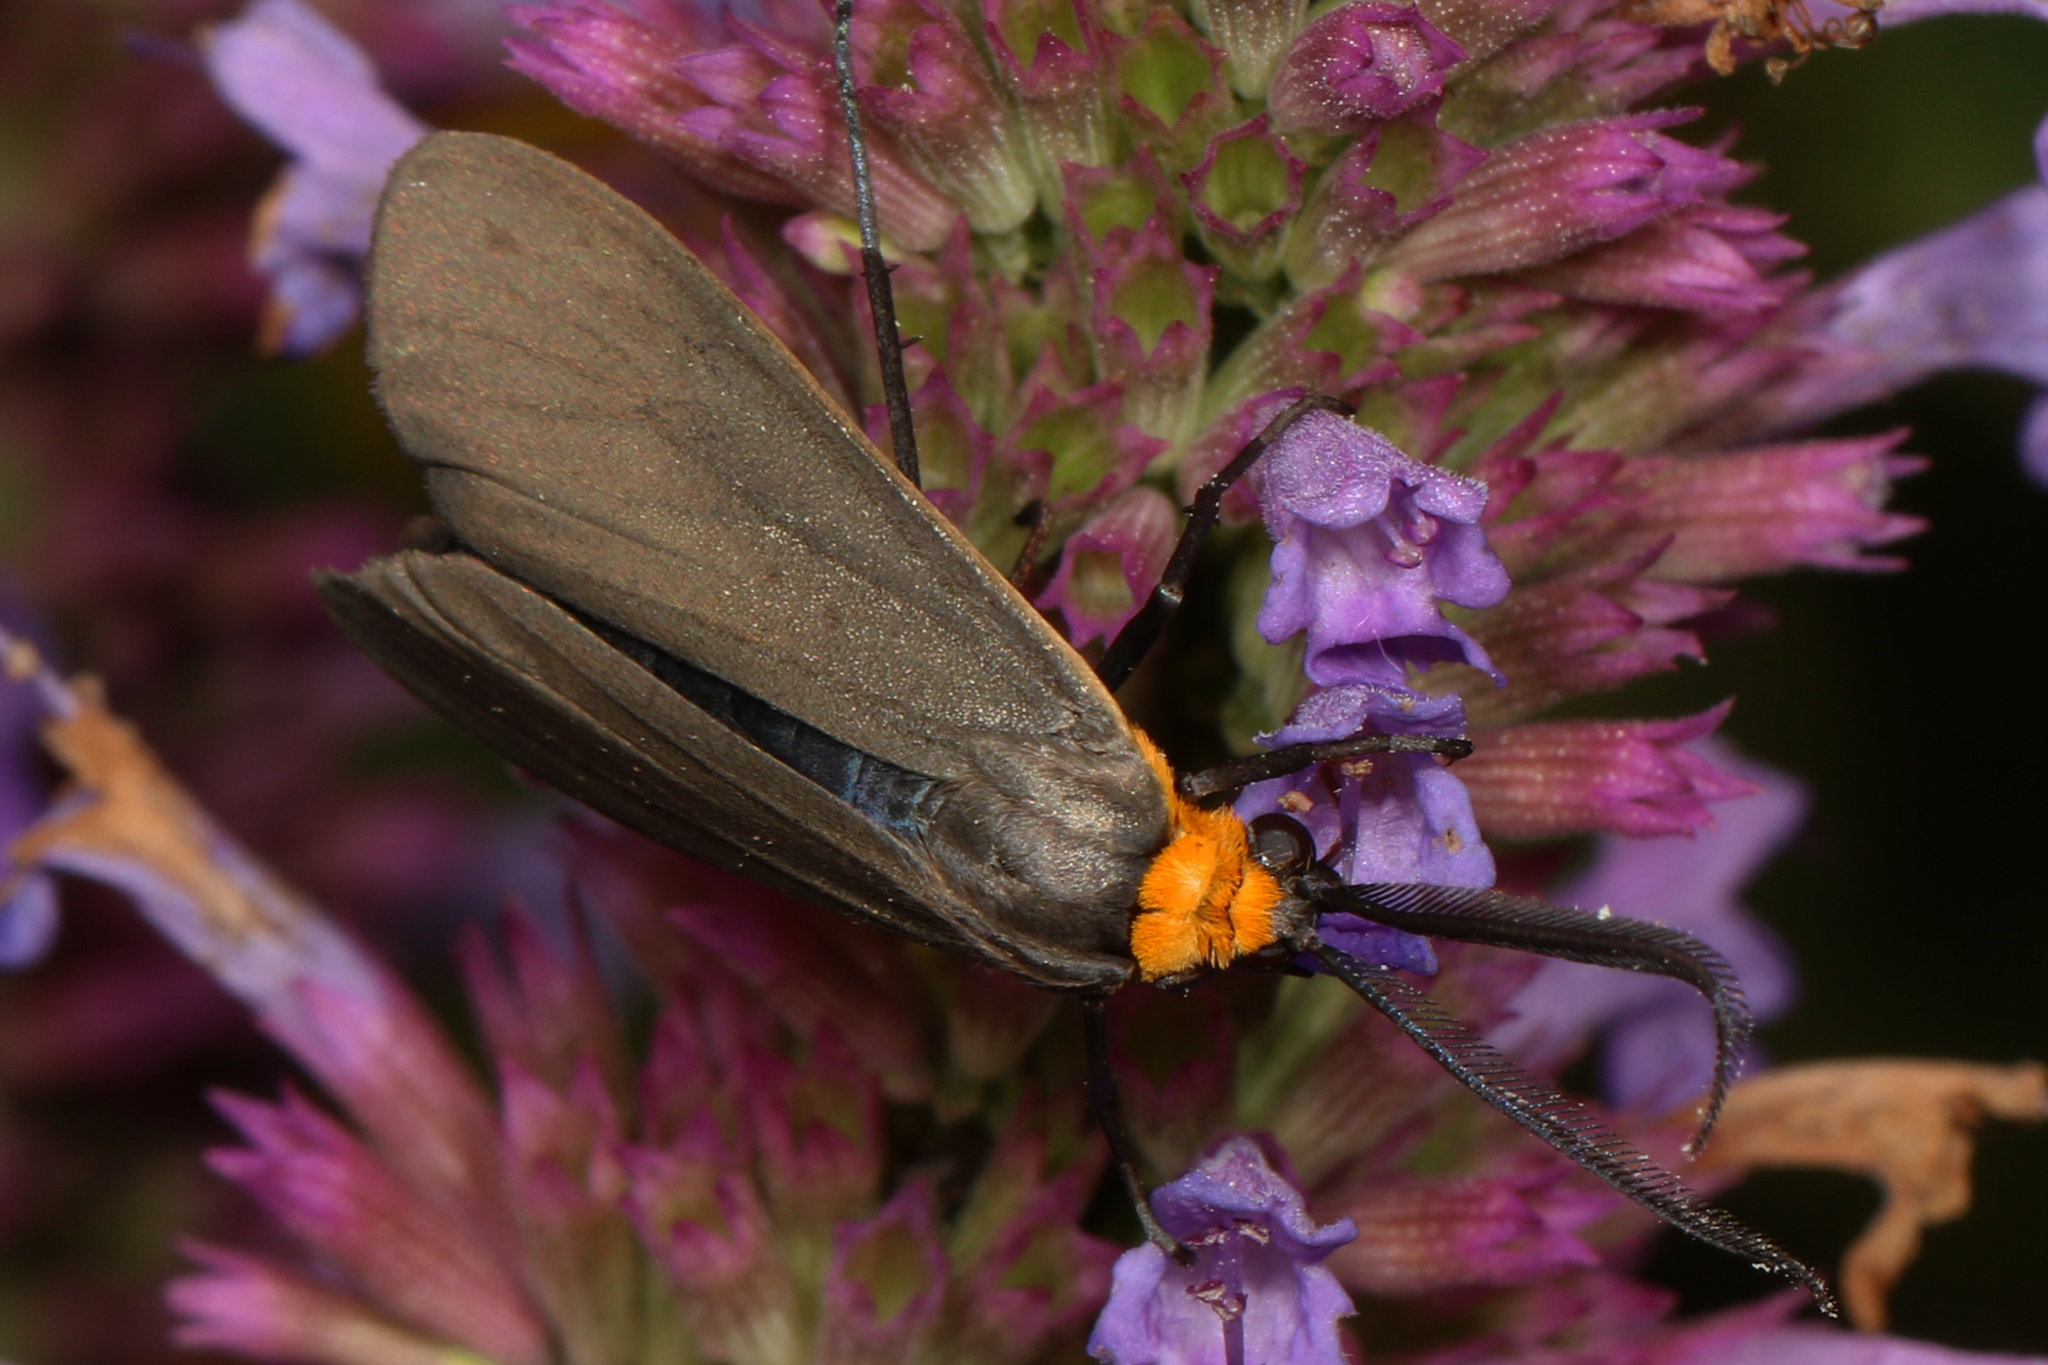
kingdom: Animalia
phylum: Arthropoda
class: Insecta
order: Lepidoptera
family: Erebidae
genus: Cisseps
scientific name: Cisseps fulvicollis
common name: Yellow-collared scape moth
